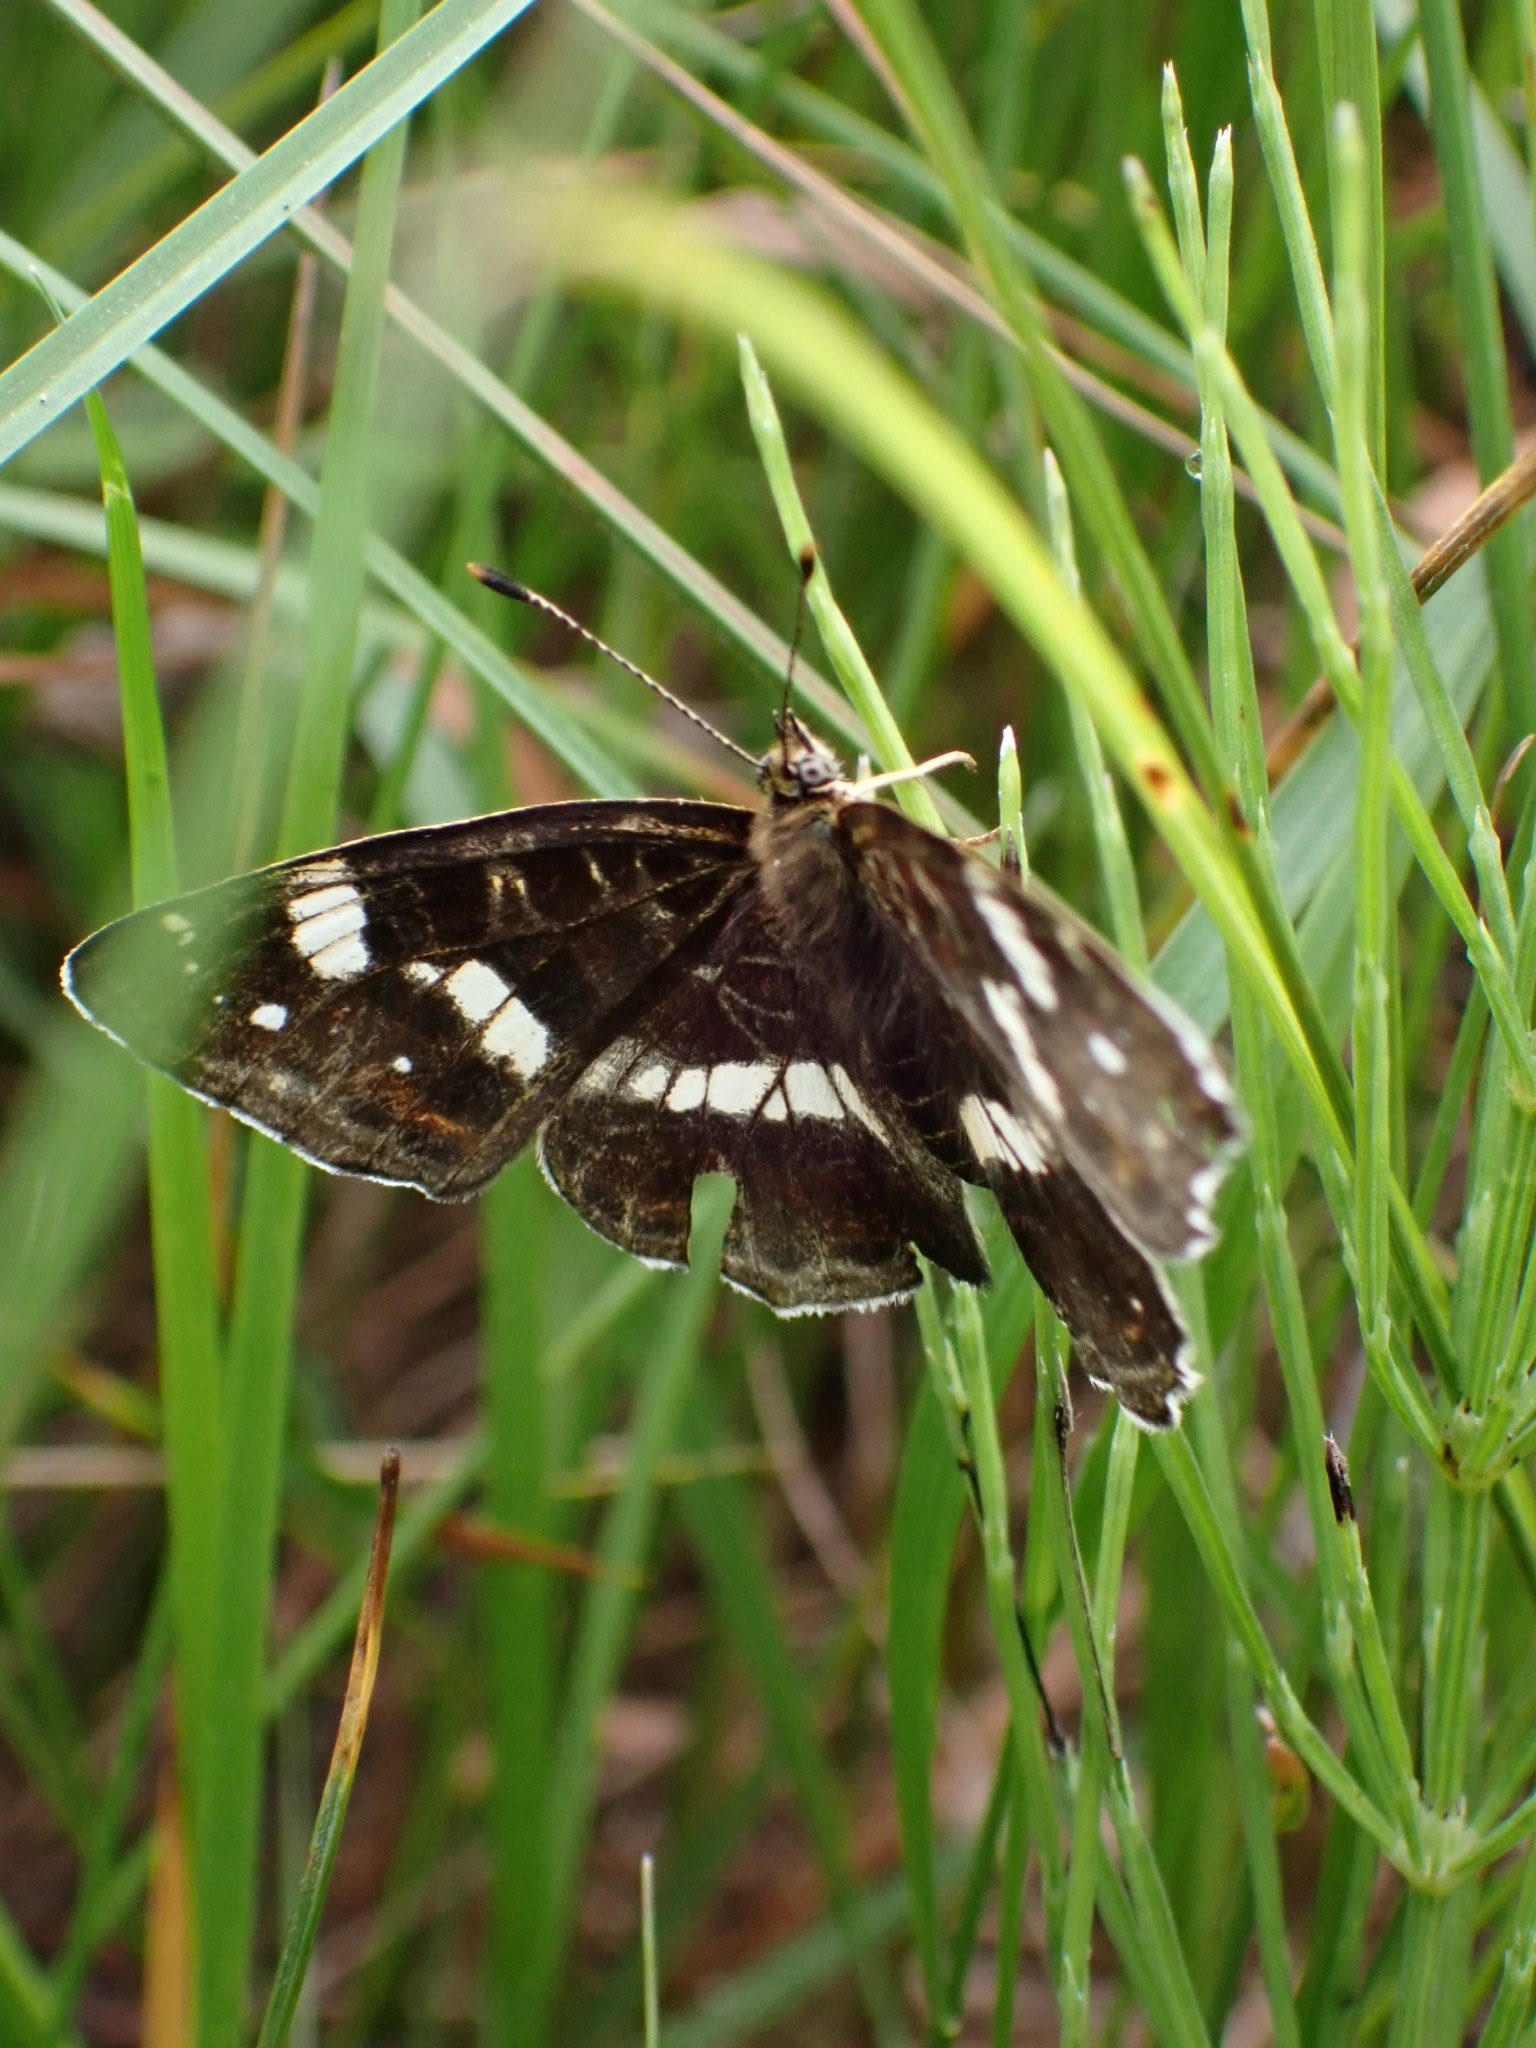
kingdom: Animalia
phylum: Arthropoda
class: Insecta
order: Lepidoptera
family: Nymphalidae
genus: Araschnia
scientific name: Araschnia levana
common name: Map butterfly
